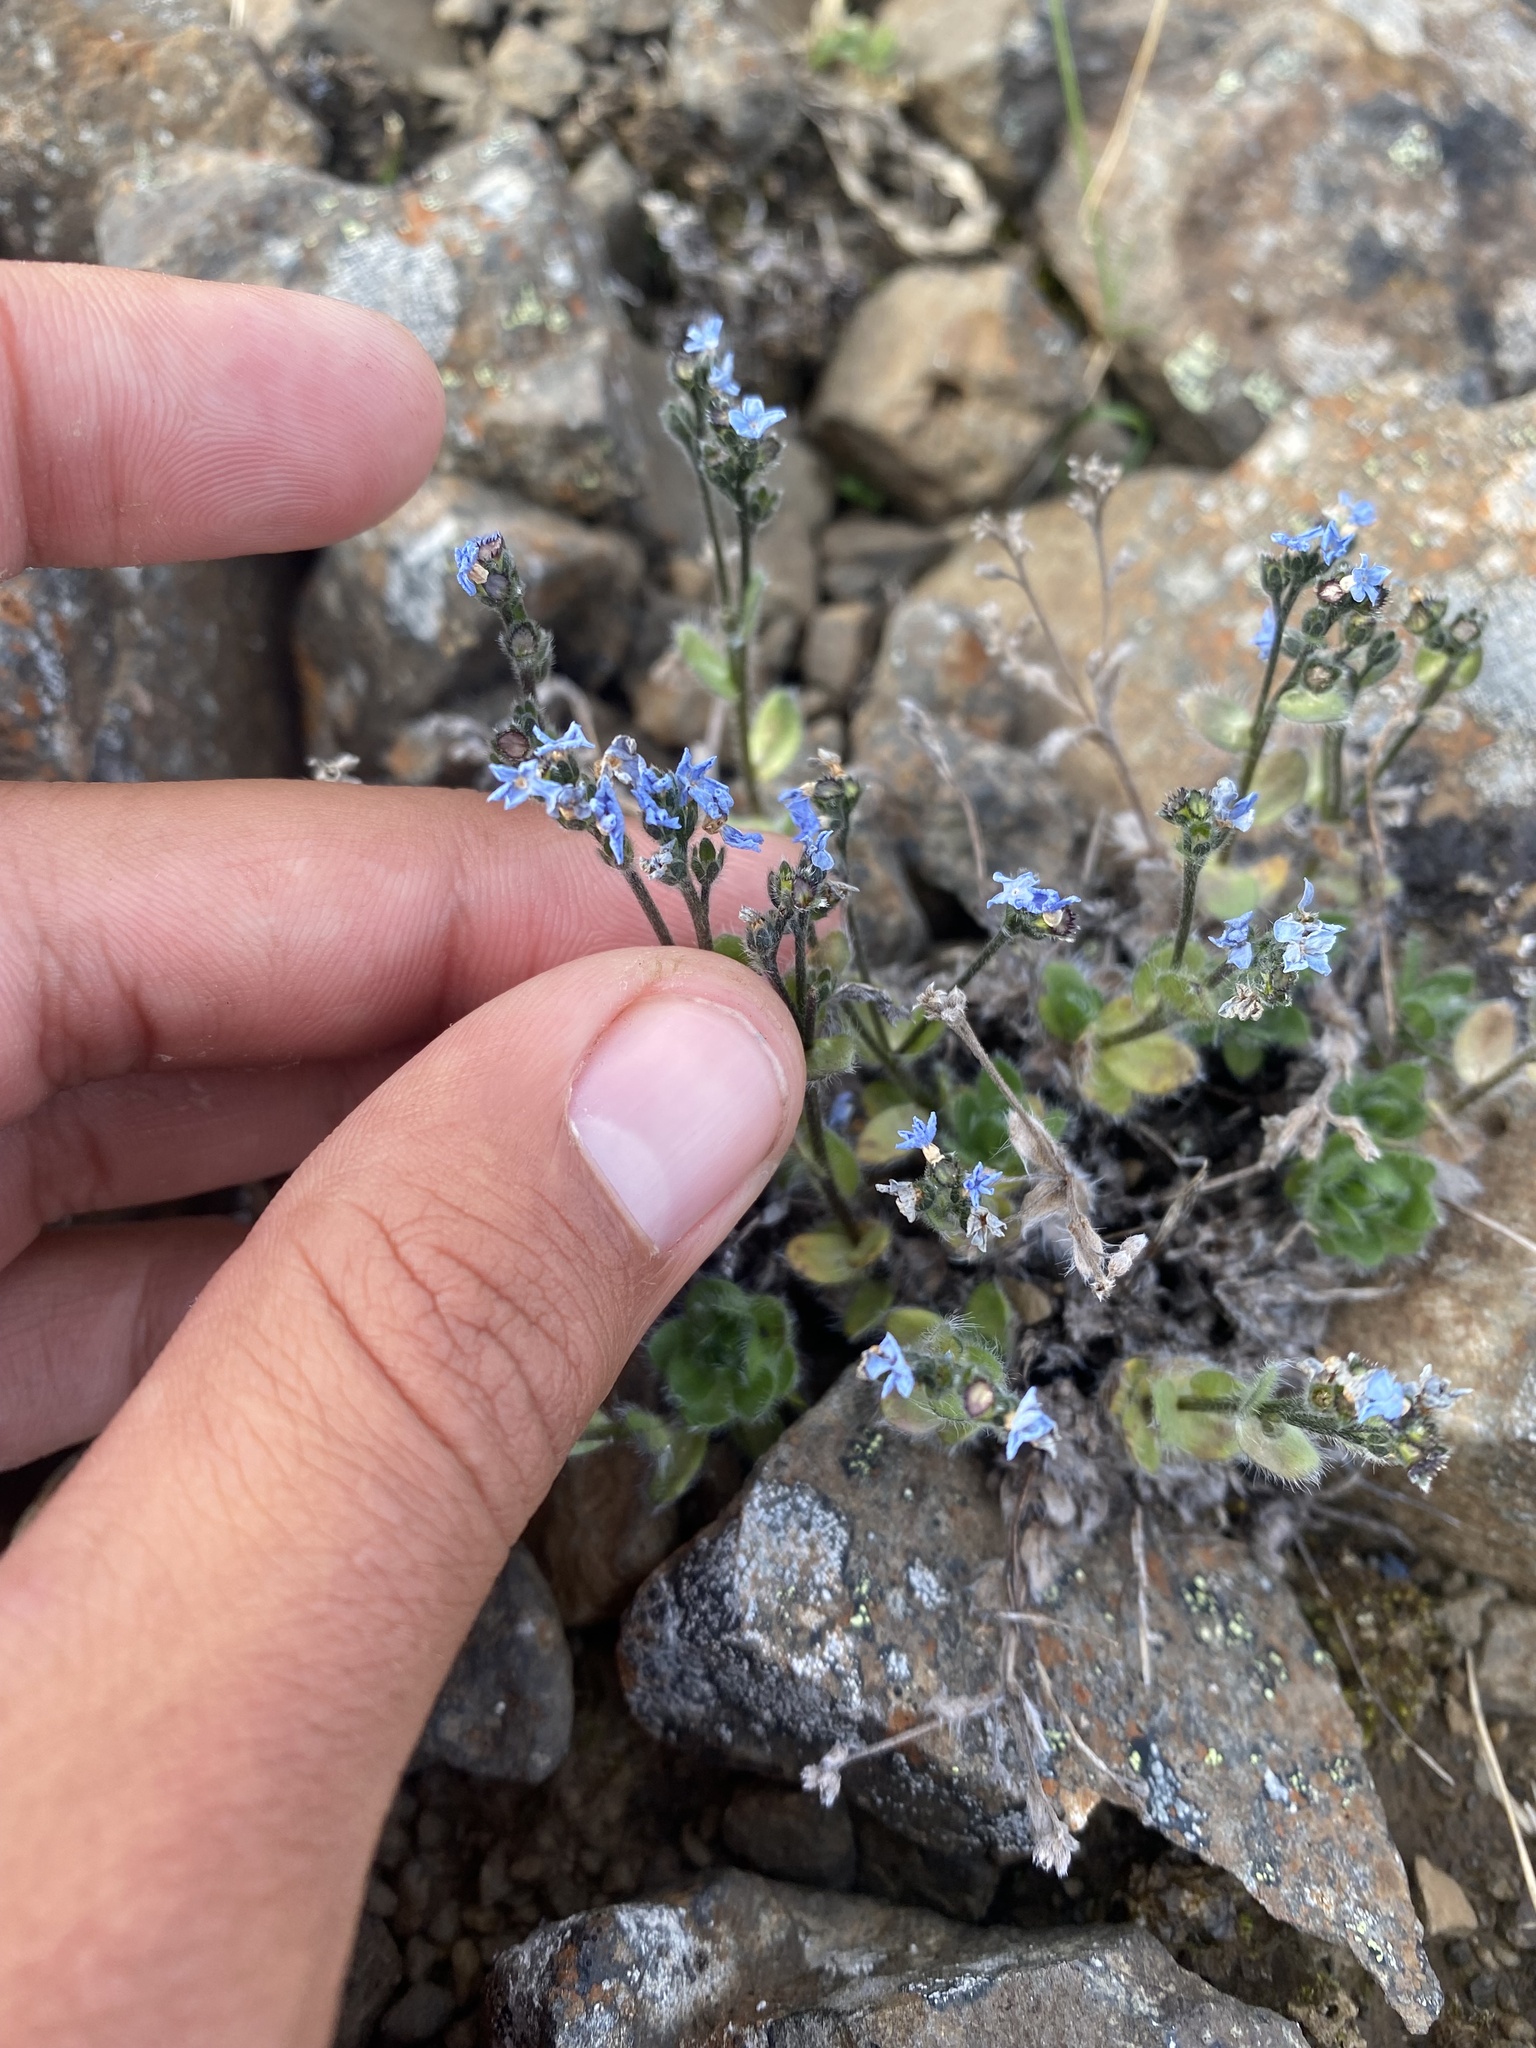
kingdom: Plantae
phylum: Tracheophyta
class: Magnoliopsida
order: Boraginales
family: Boraginaceae
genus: Eritrichium
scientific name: Eritrichium villosum
